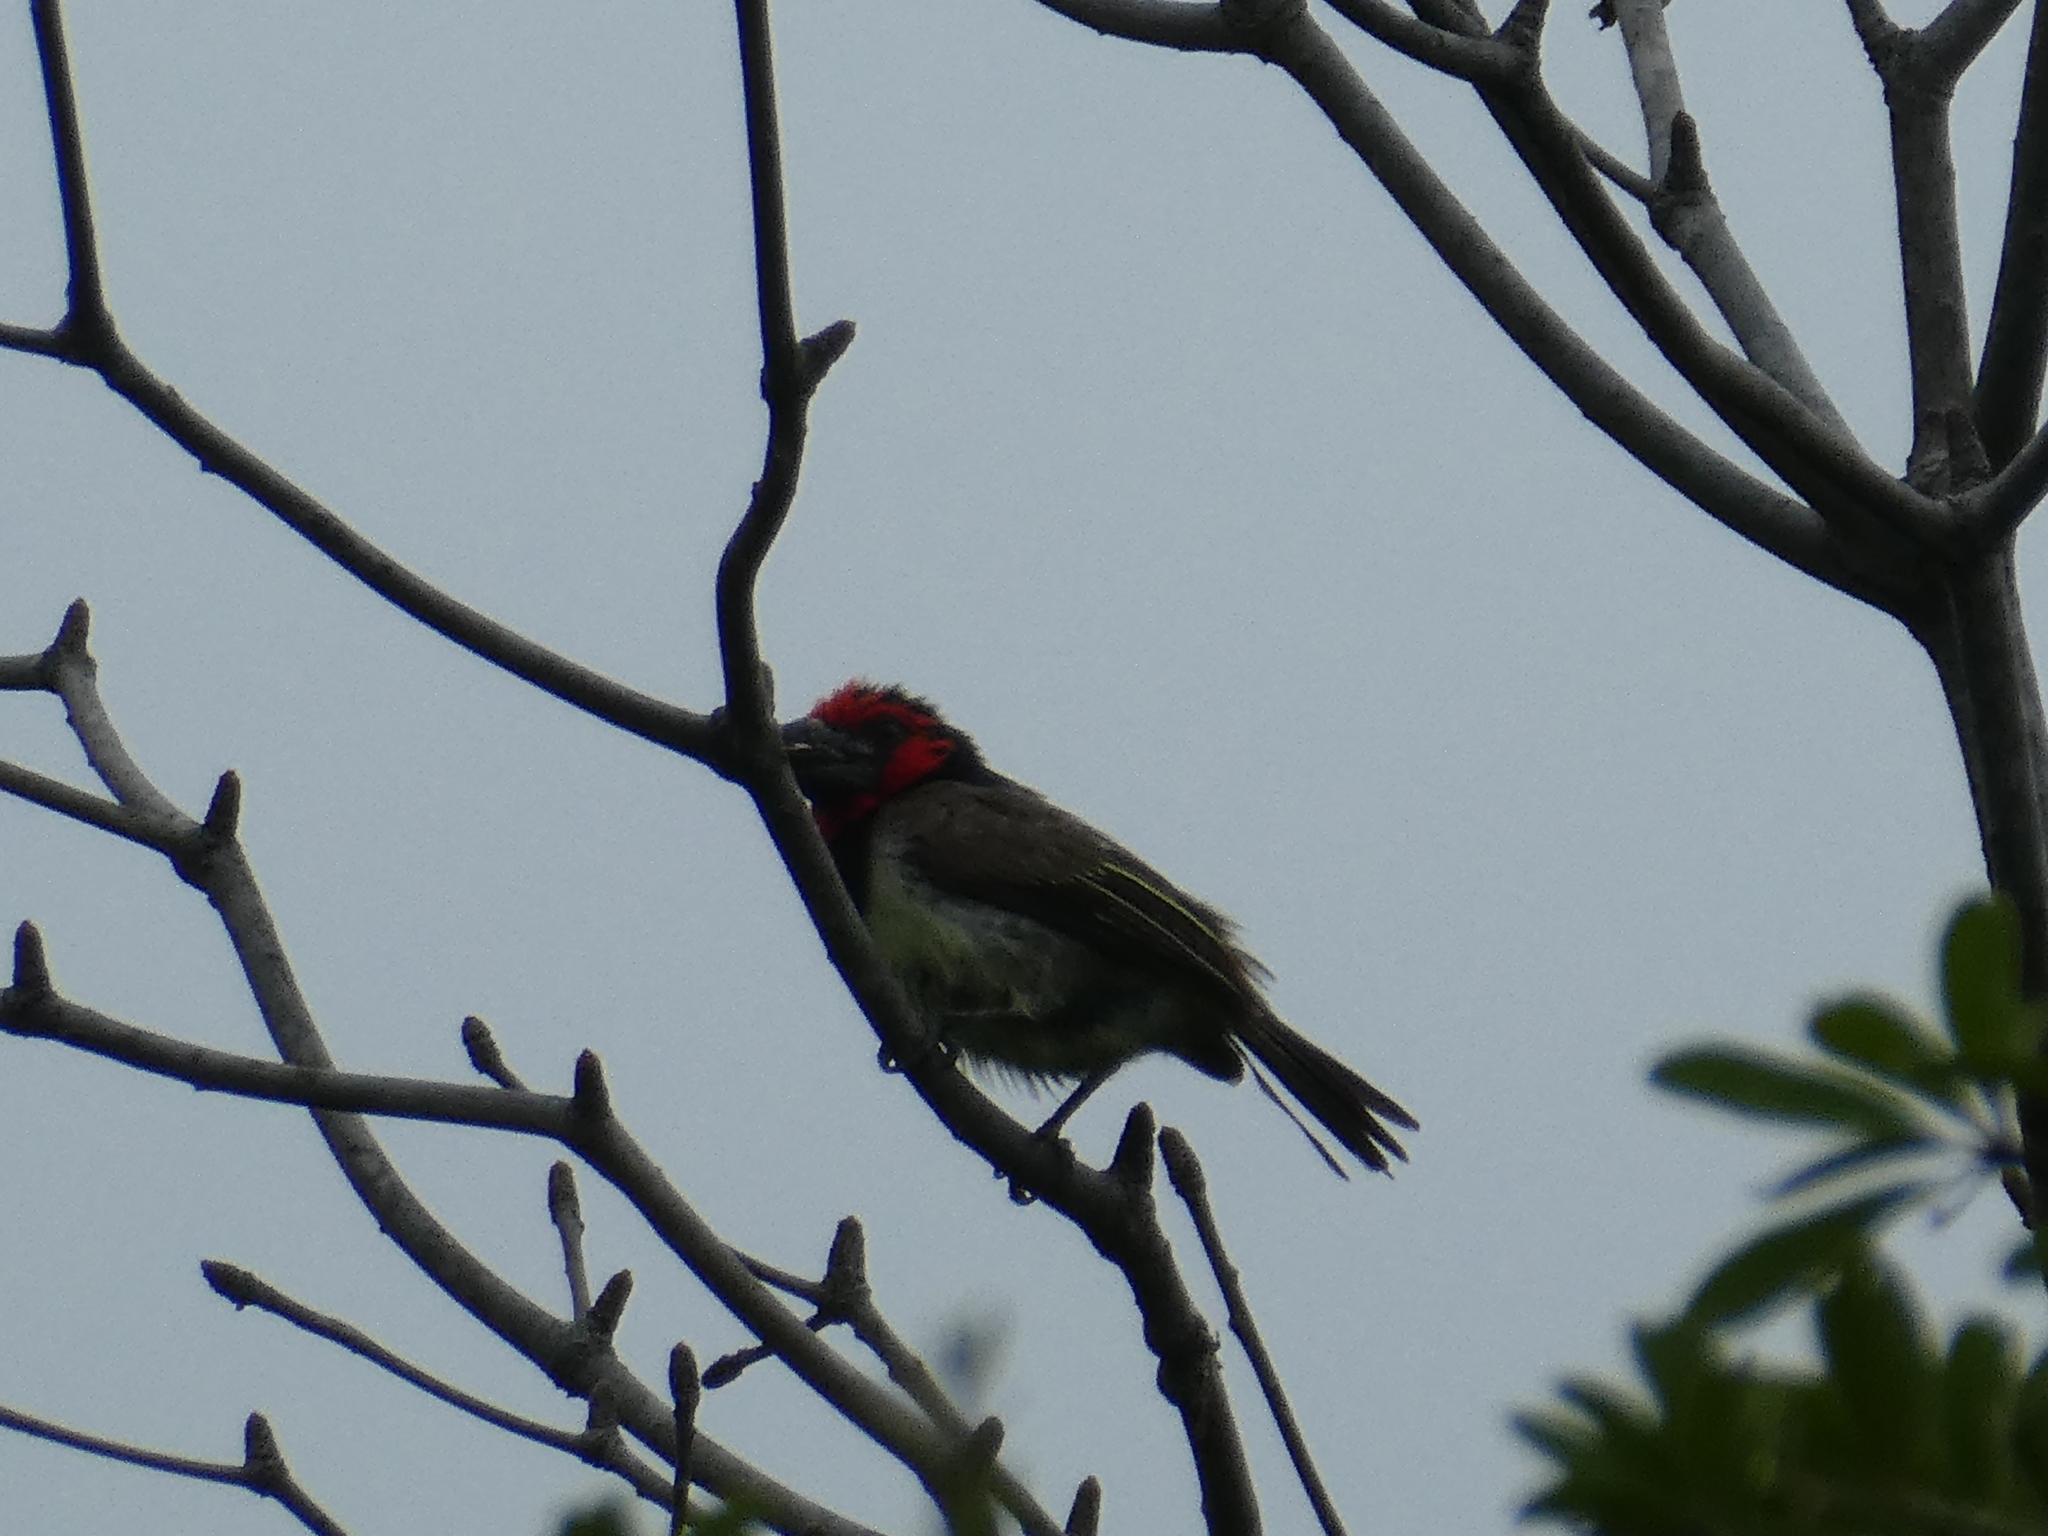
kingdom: Animalia
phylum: Chordata
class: Aves
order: Piciformes
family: Lybiidae
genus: Lybius
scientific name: Lybius torquatus
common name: Black-collared barbet
